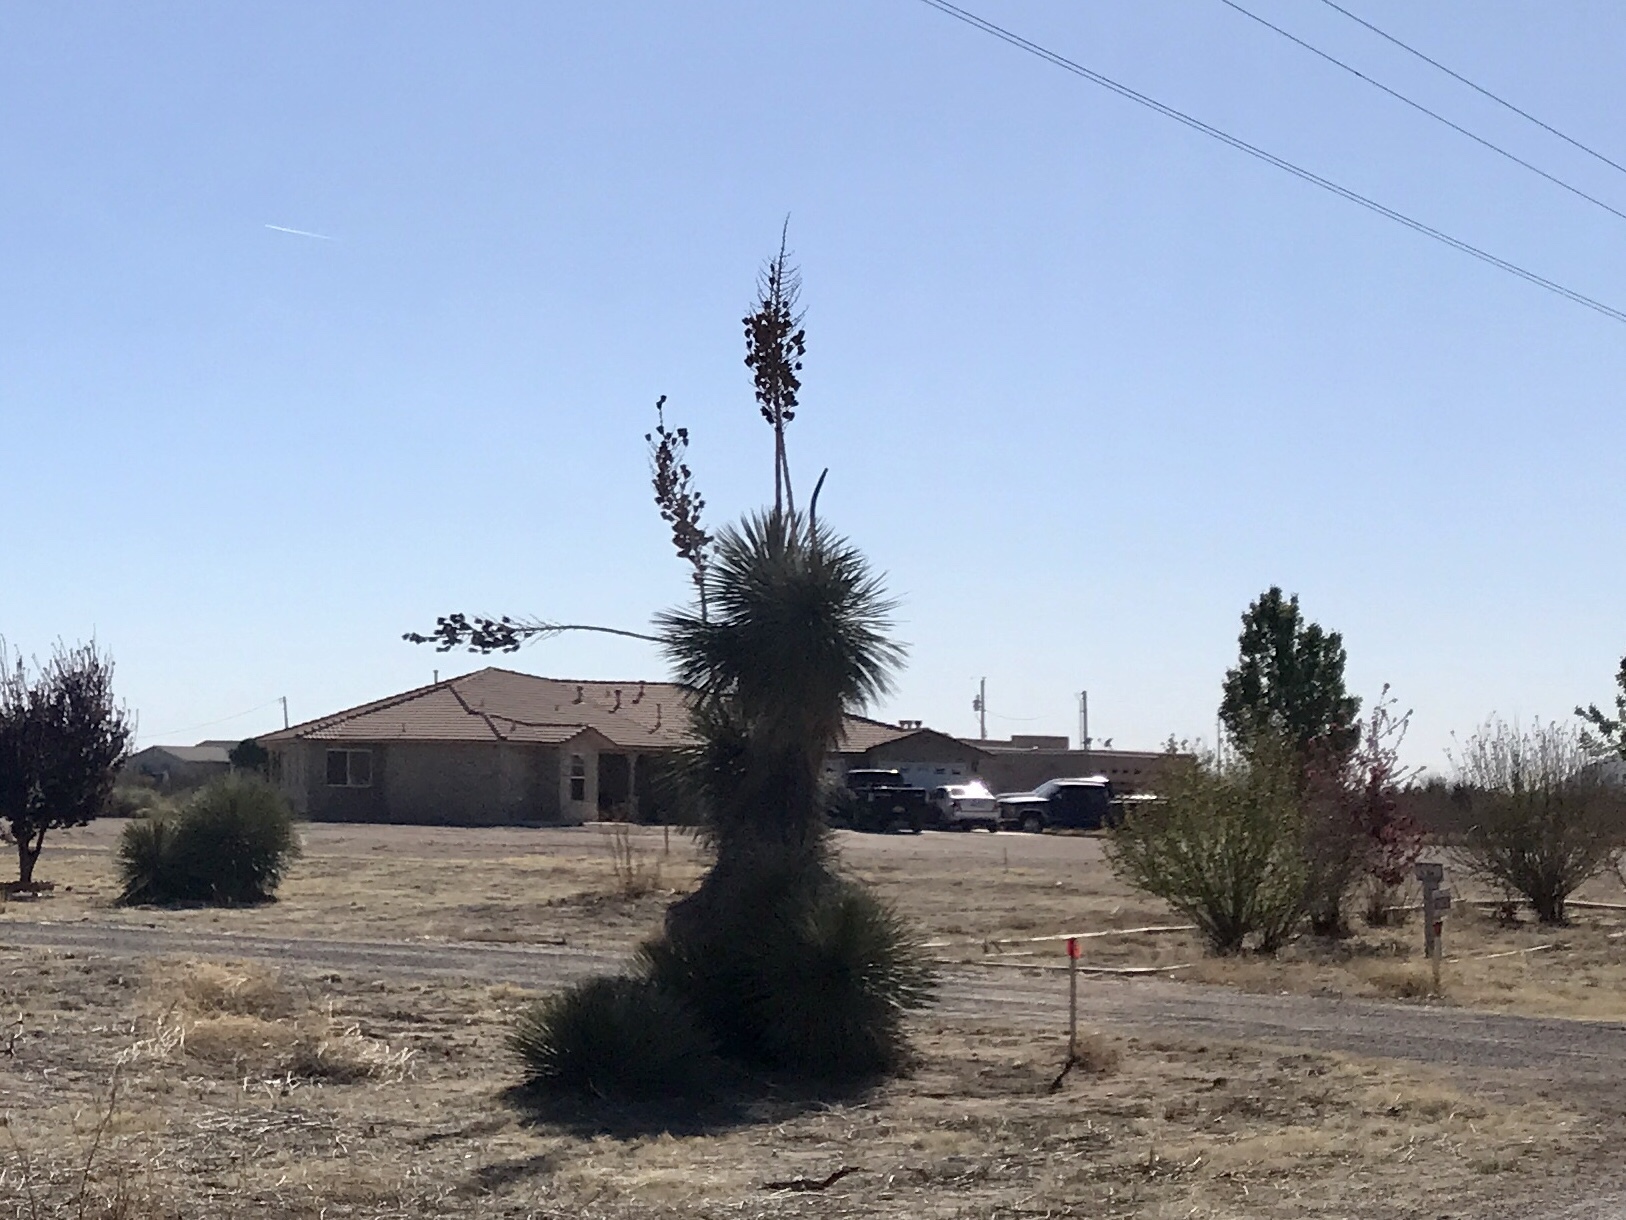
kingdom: Plantae
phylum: Tracheophyta
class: Liliopsida
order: Asparagales
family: Asparagaceae
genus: Yucca
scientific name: Yucca elata
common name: Palmella
